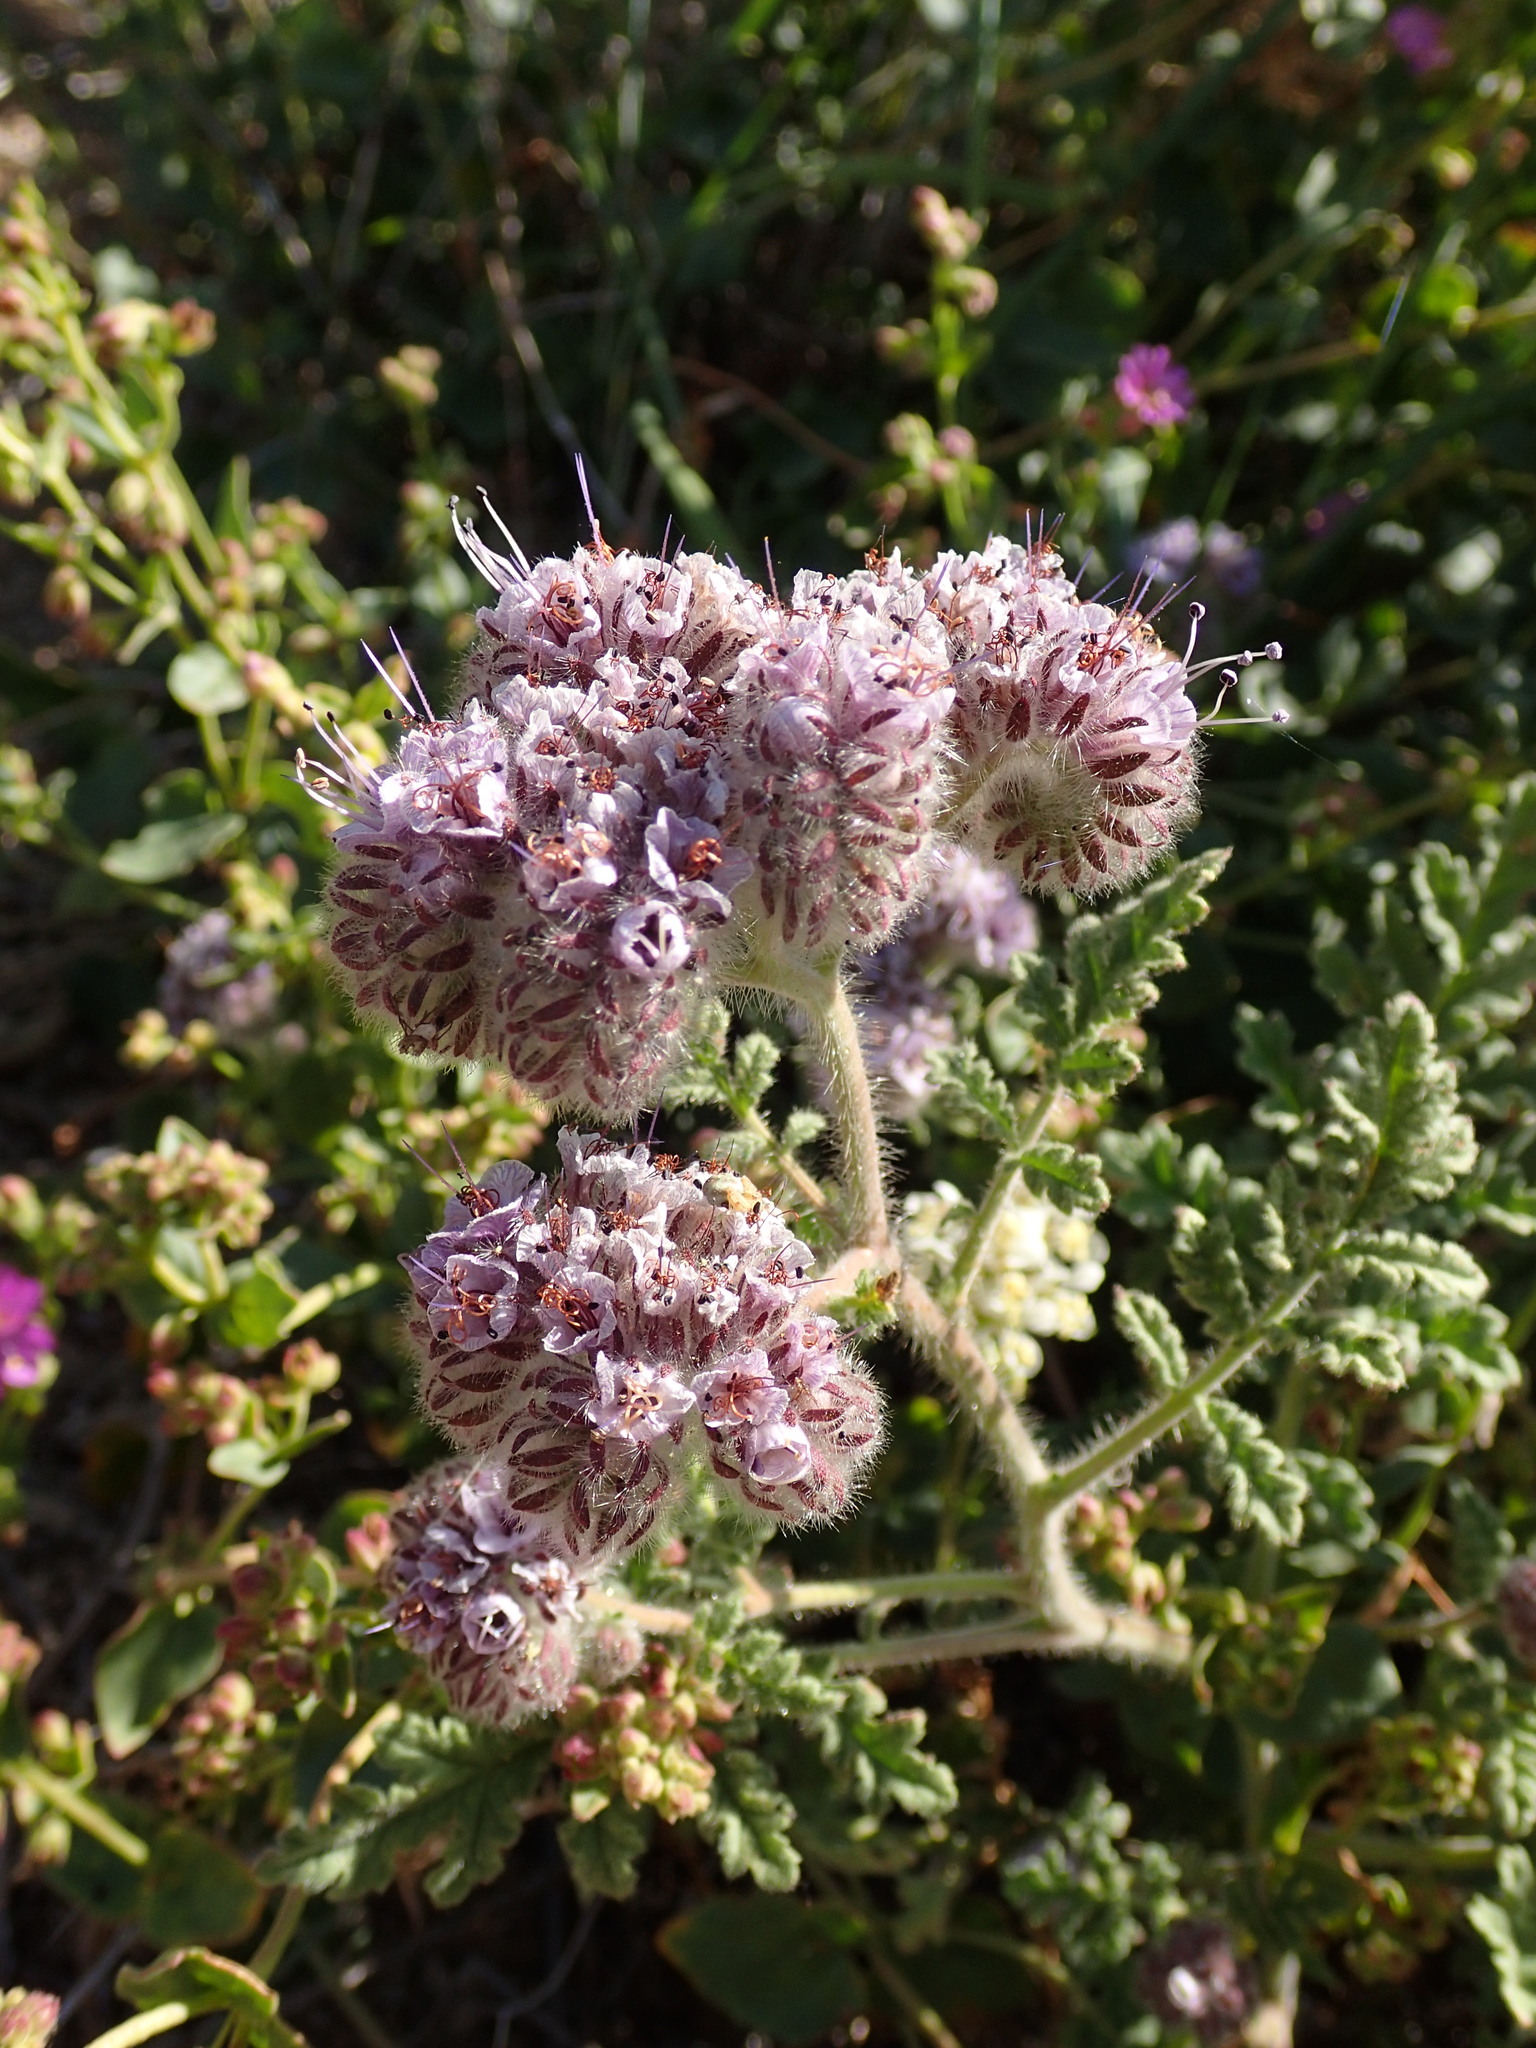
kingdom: Plantae
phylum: Tracheophyta
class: Magnoliopsida
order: Boraginales
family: Hydrophyllaceae
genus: Phacelia
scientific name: Phacelia hubbyi
